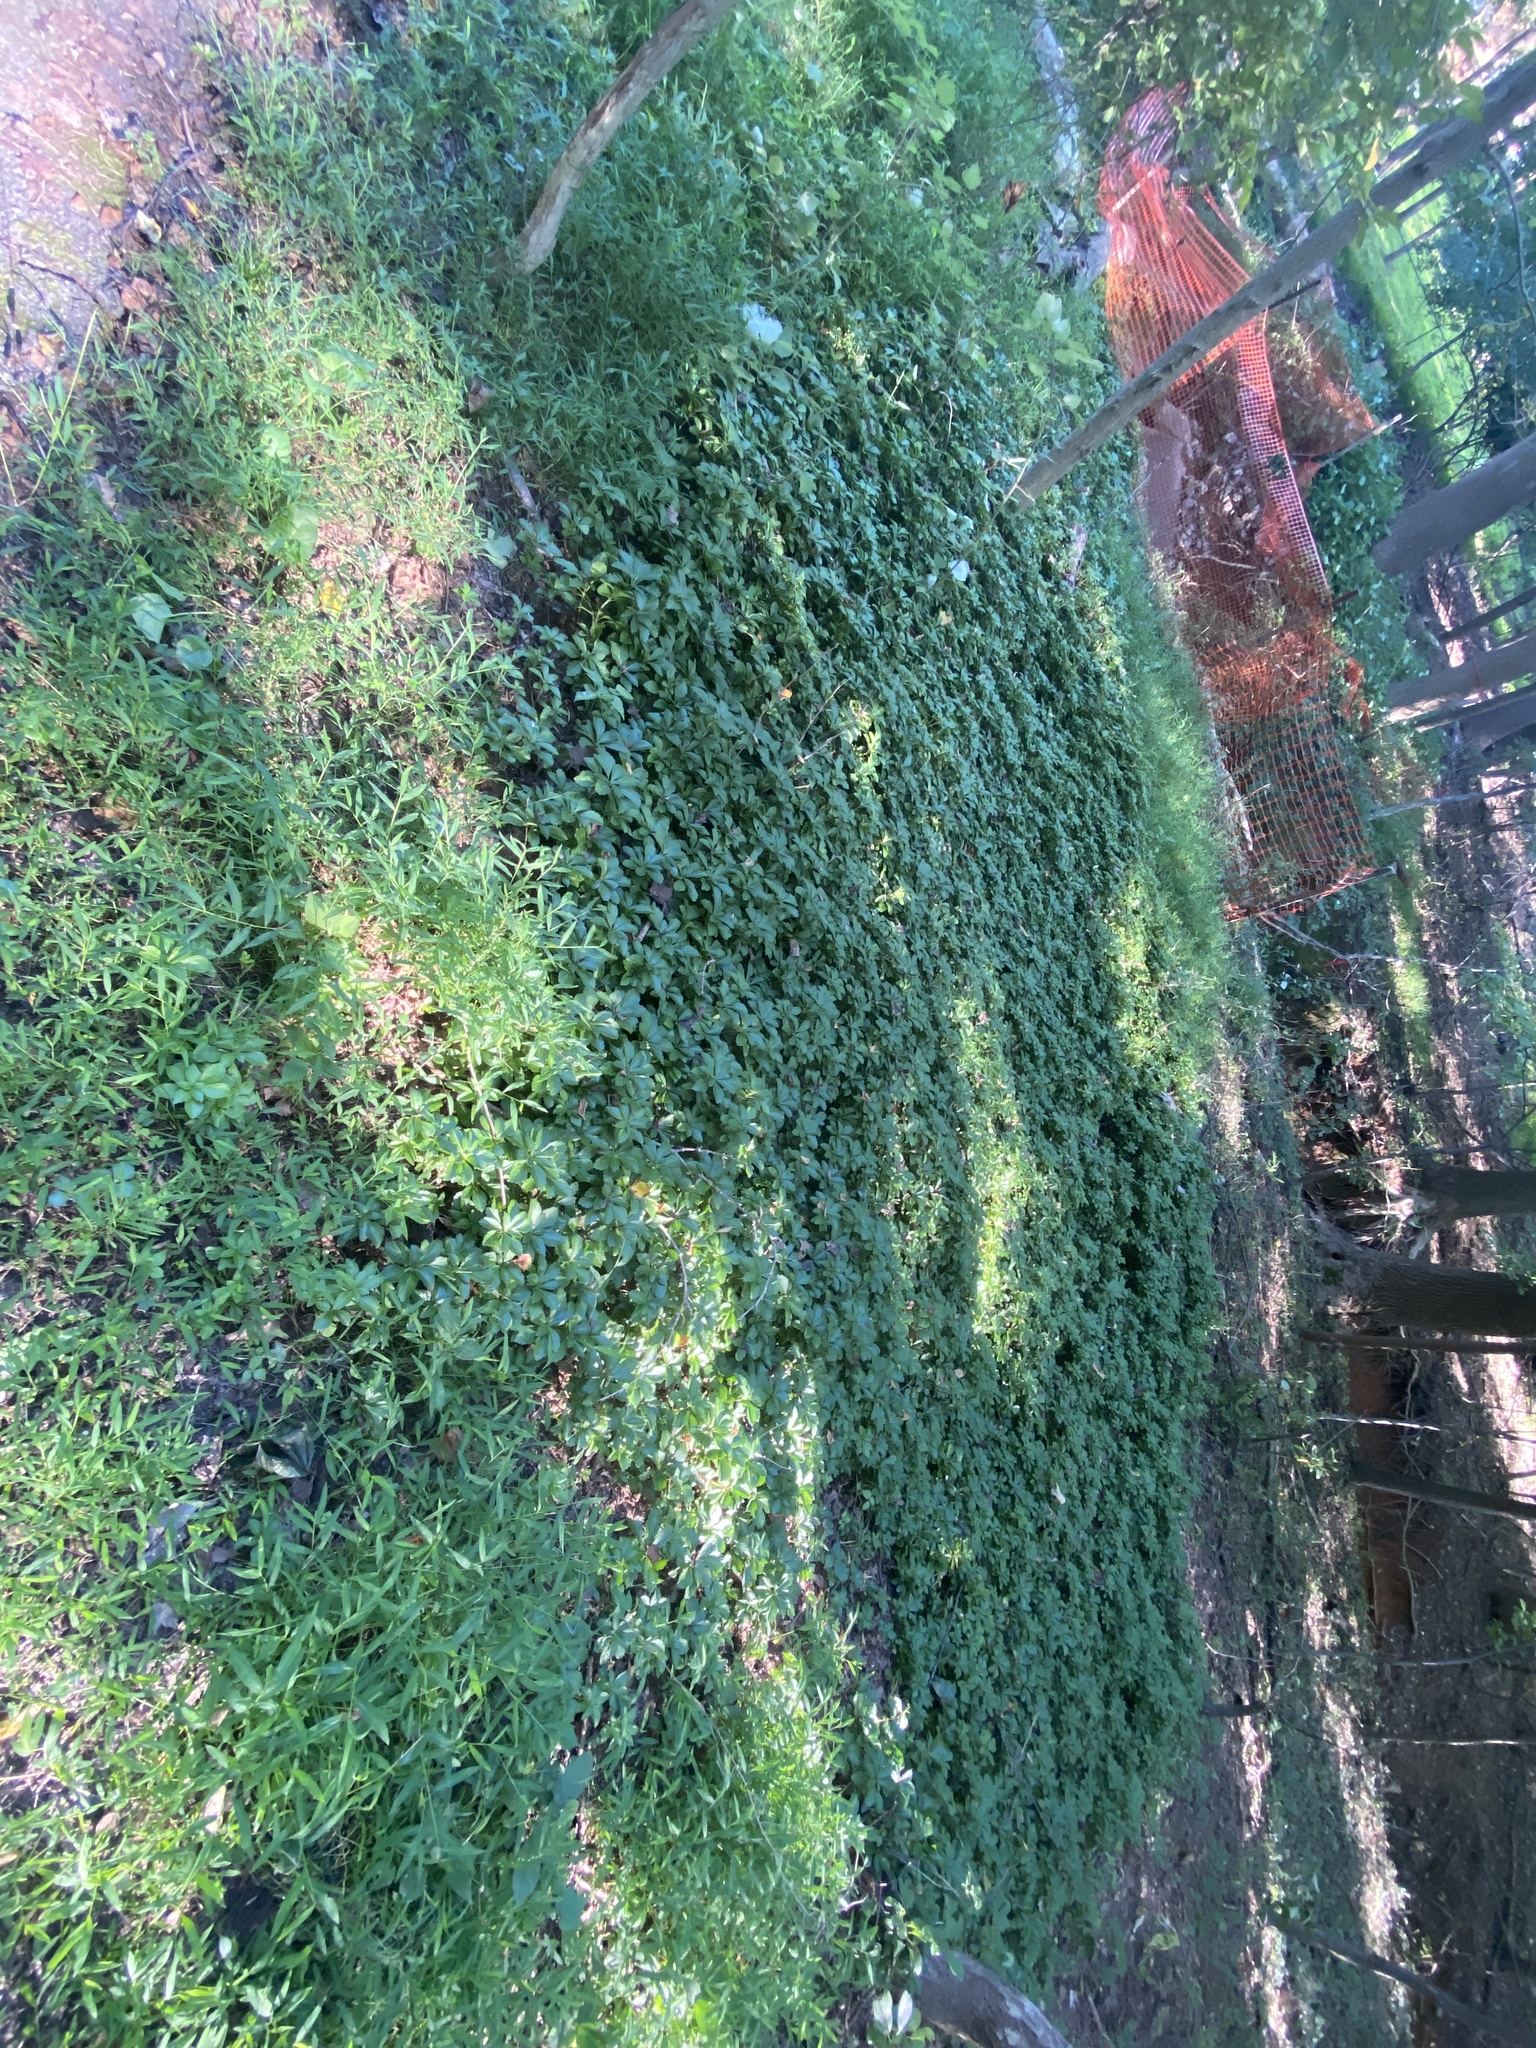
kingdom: Plantae
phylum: Tracheophyta
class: Magnoliopsida
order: Buxales
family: Buxaceae
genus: Pachysandra
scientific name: Pachysandra terminalis
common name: Japanese pachysandra
